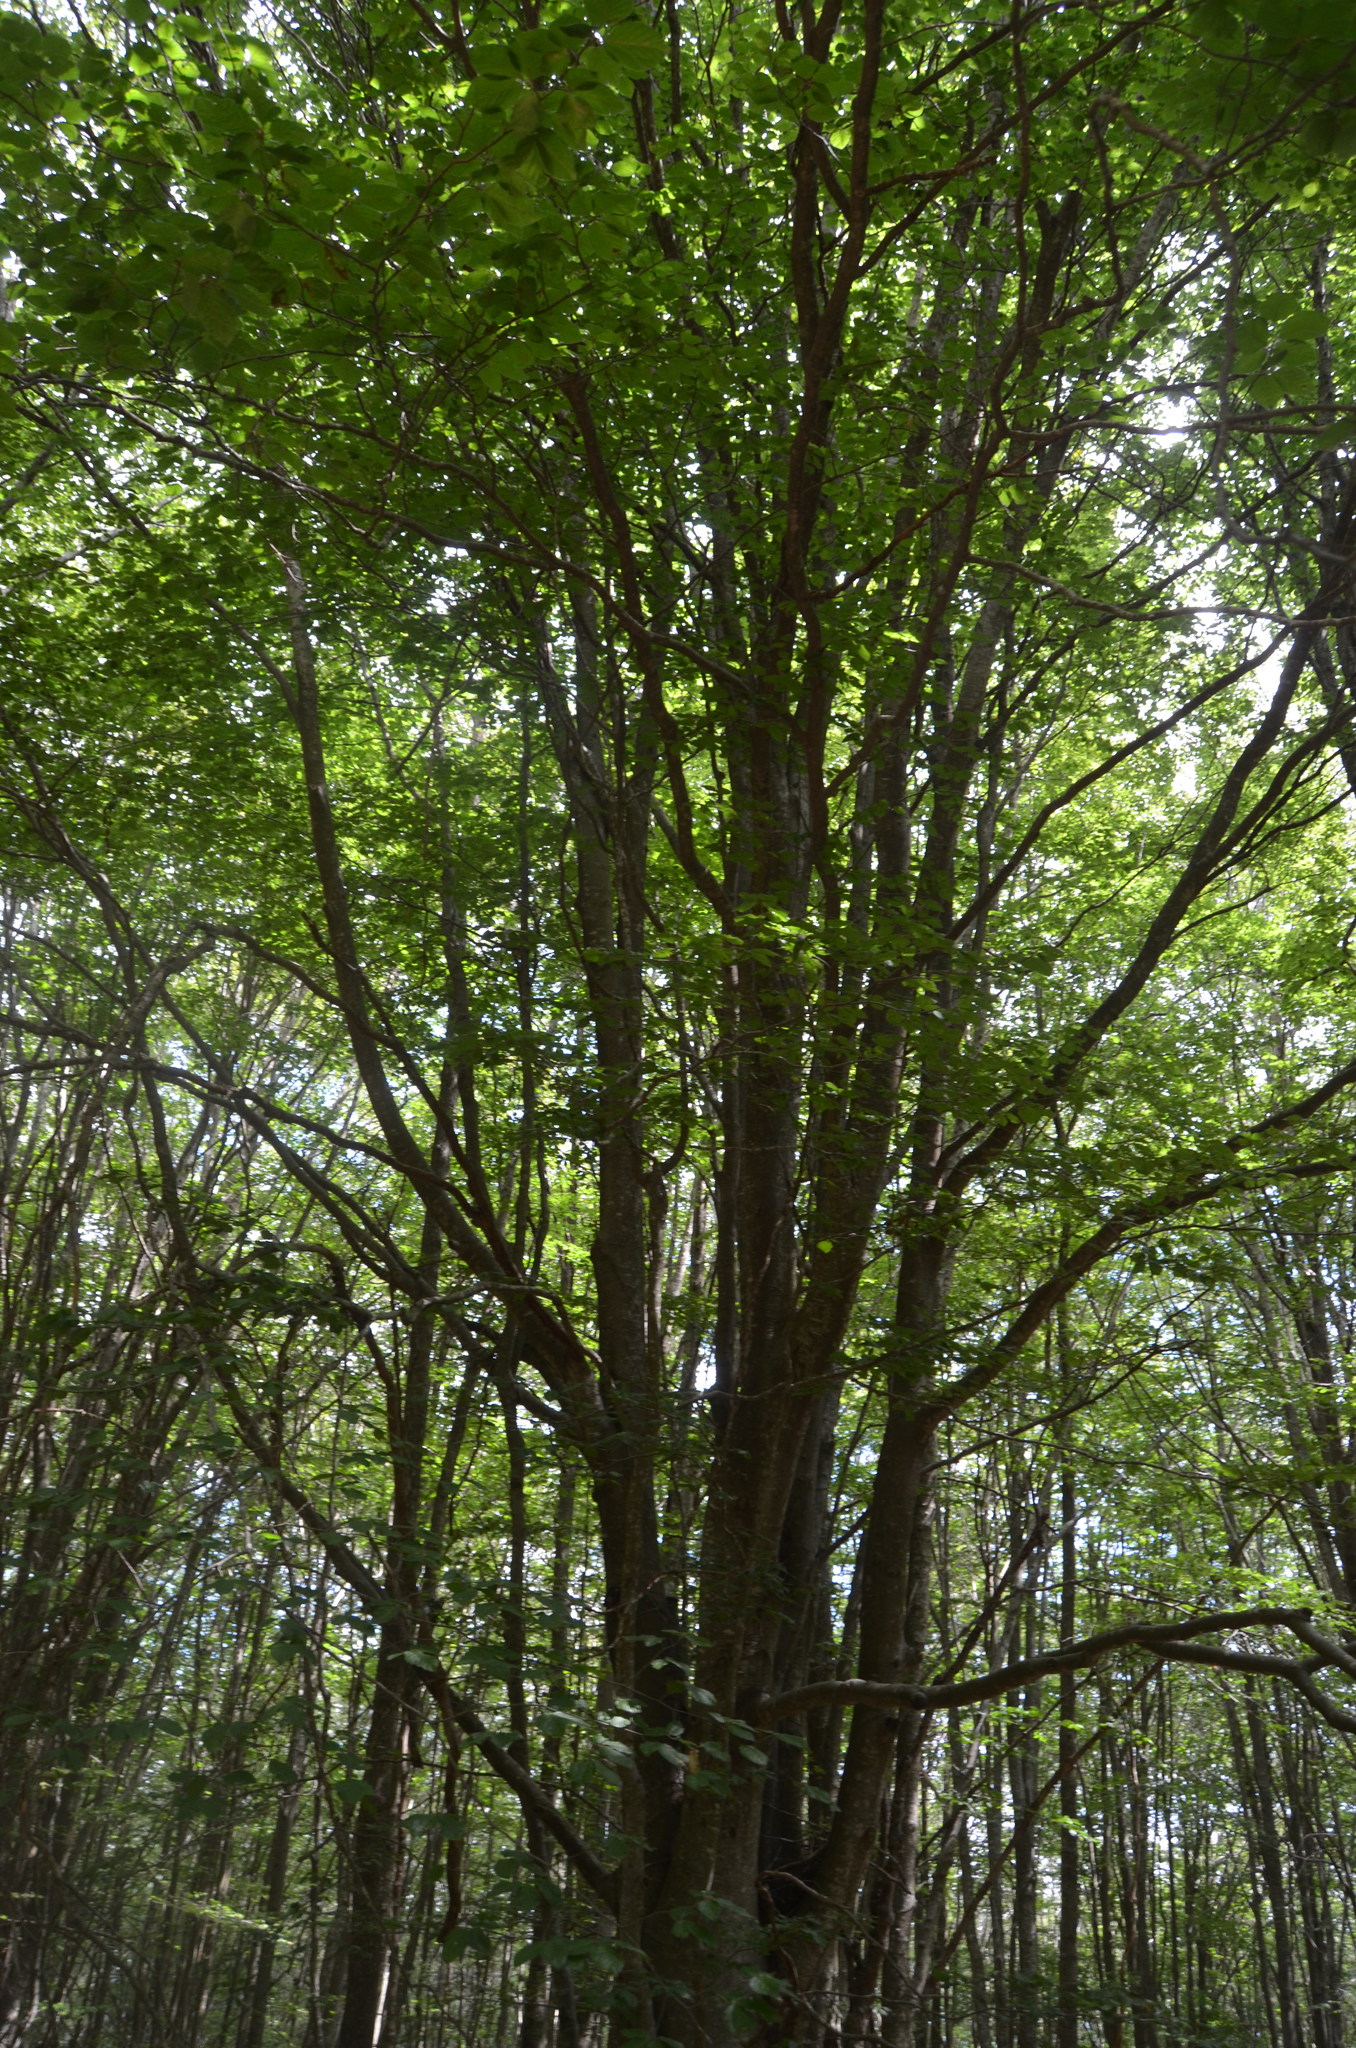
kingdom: Plantae
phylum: Tracheophyta
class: Magnoliopsida
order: Fagales
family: Fagaceae
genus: Fagus
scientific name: Fagus sylvatica
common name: Beech
